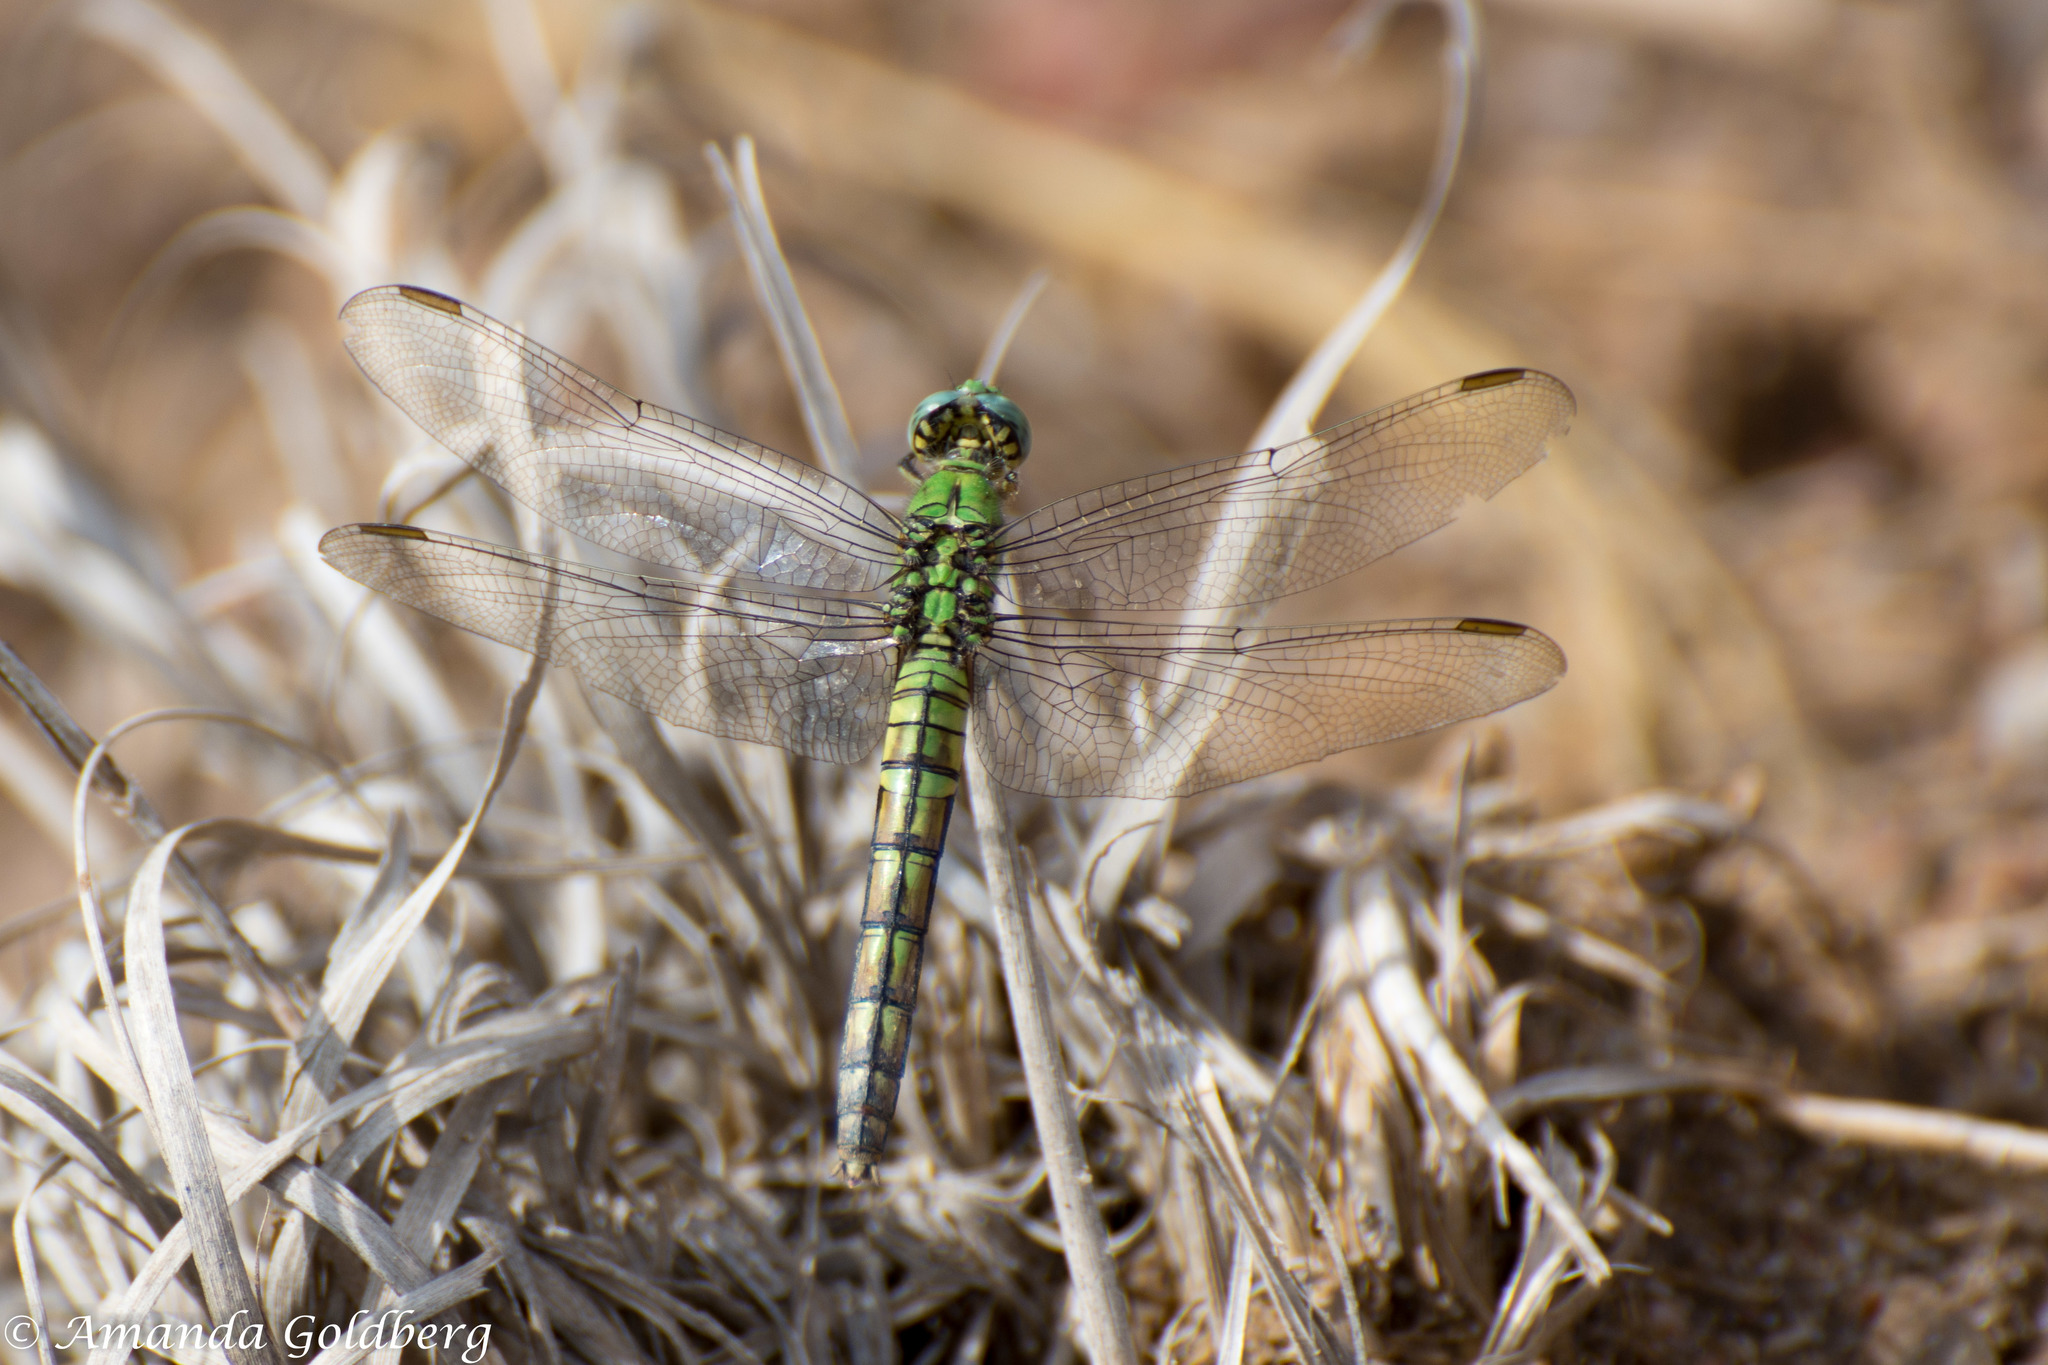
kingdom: Animalia
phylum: Arthropoda
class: Insecta
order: Odonata
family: Libellulidae
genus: Erythemis
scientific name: Erythemis collocata
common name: Western pondhawk
